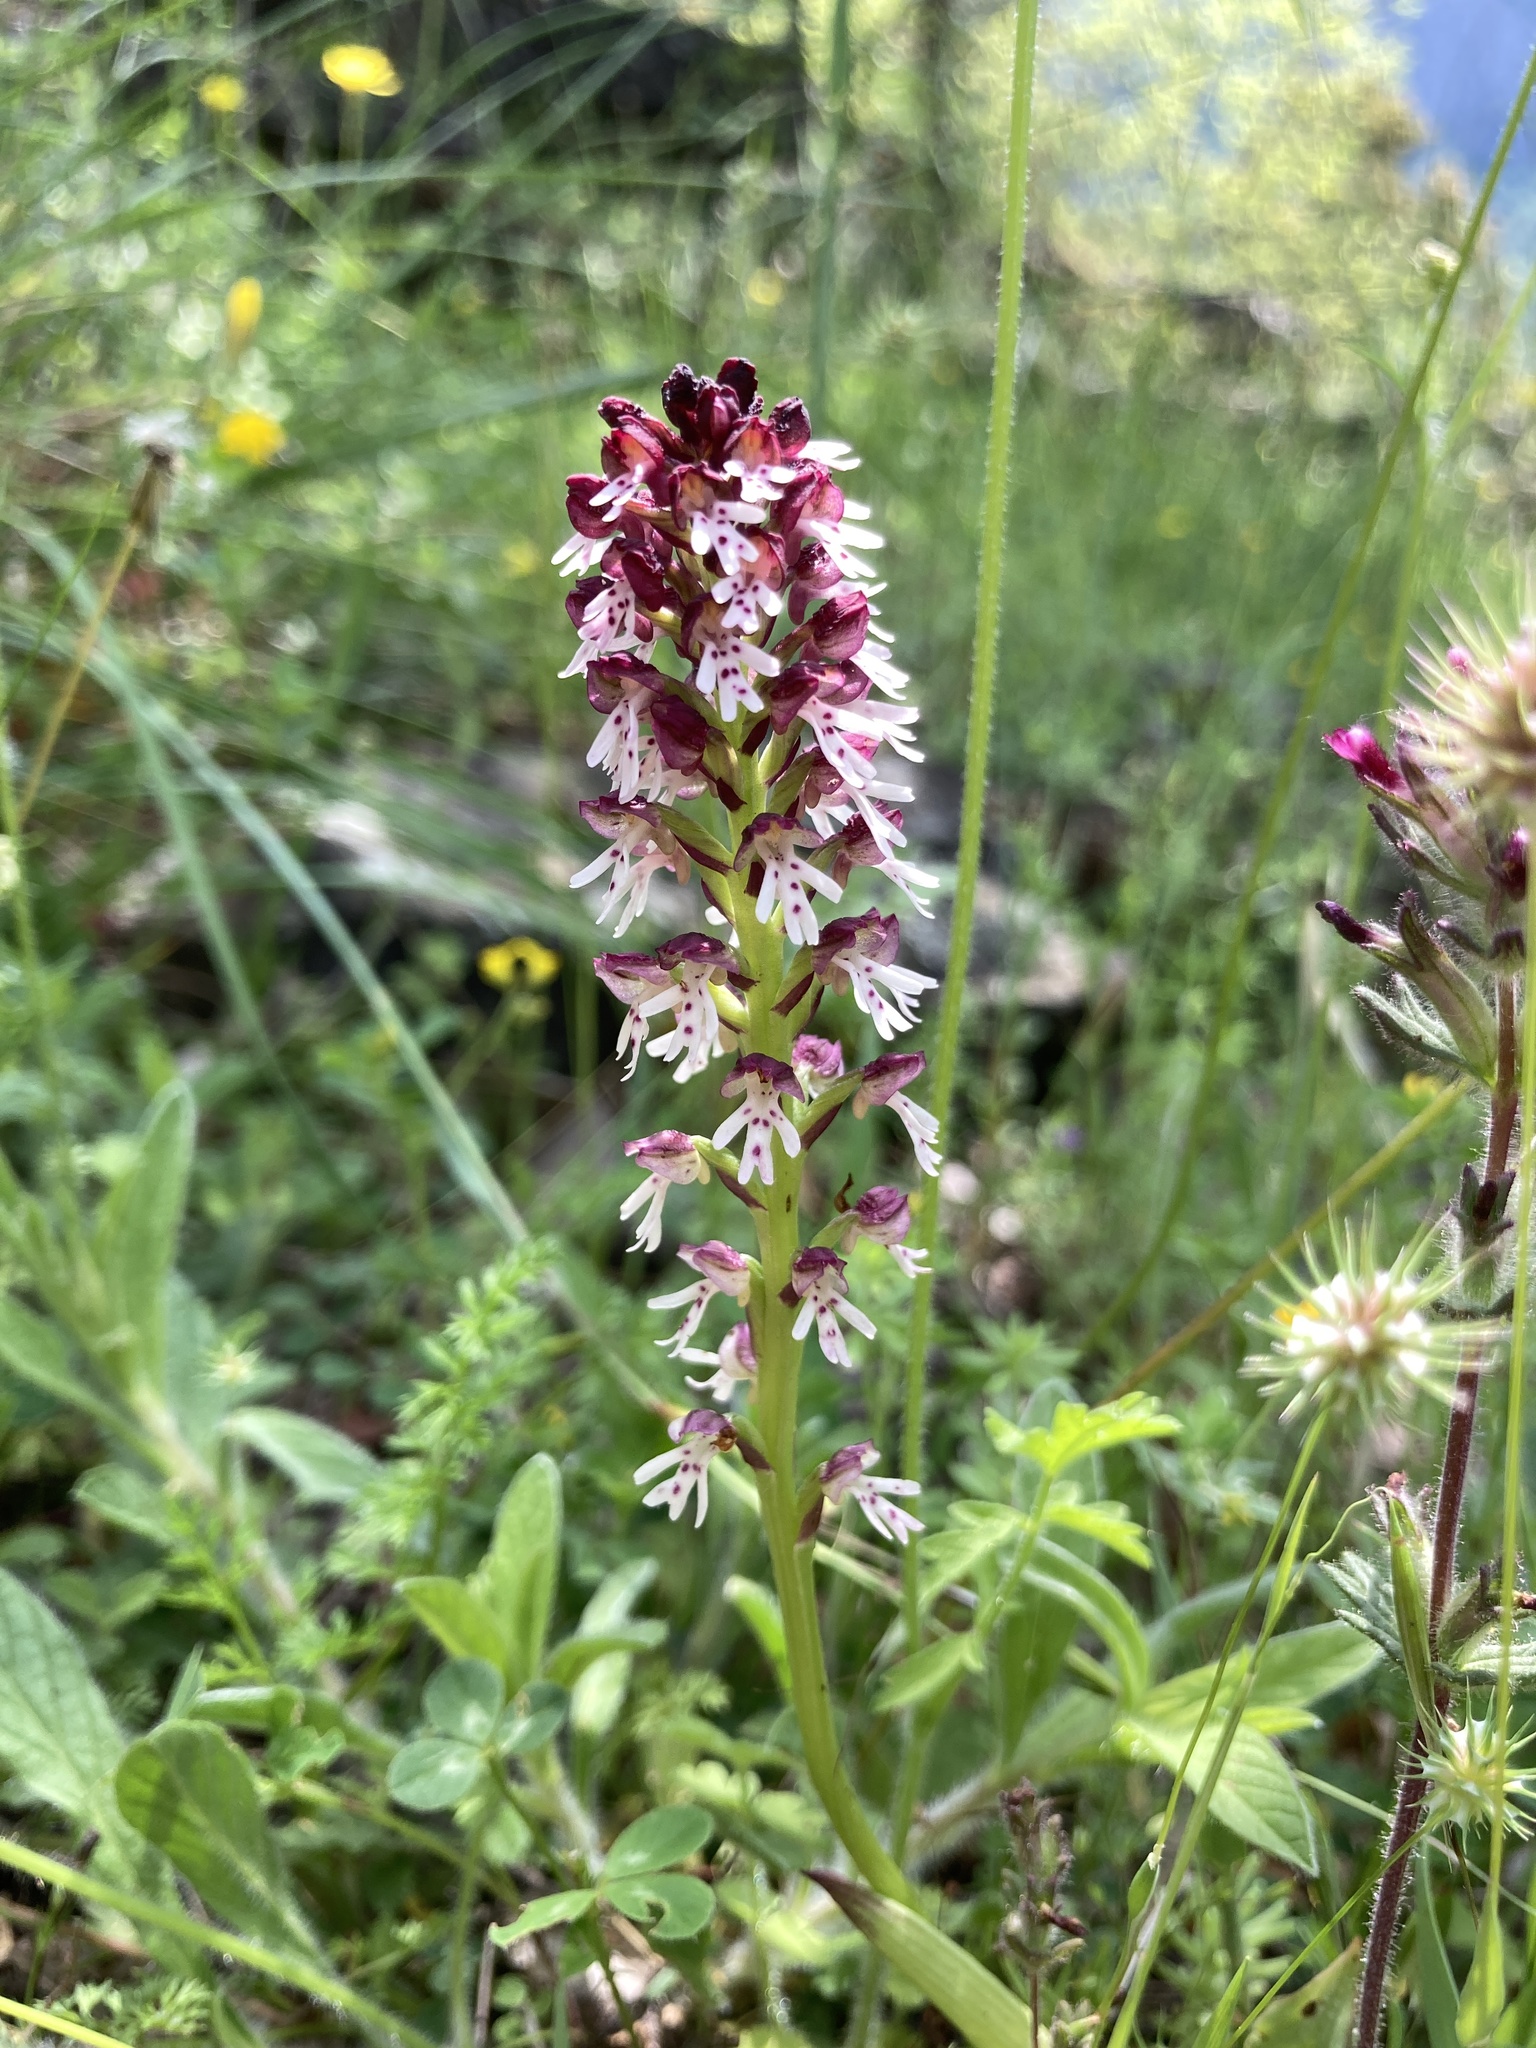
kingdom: Plantae
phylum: Tracheophyta
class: Liliopsida
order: Asparagales
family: Orchidaceae
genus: Neotinea
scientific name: Neotinea ustulata
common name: Burnt orchid
